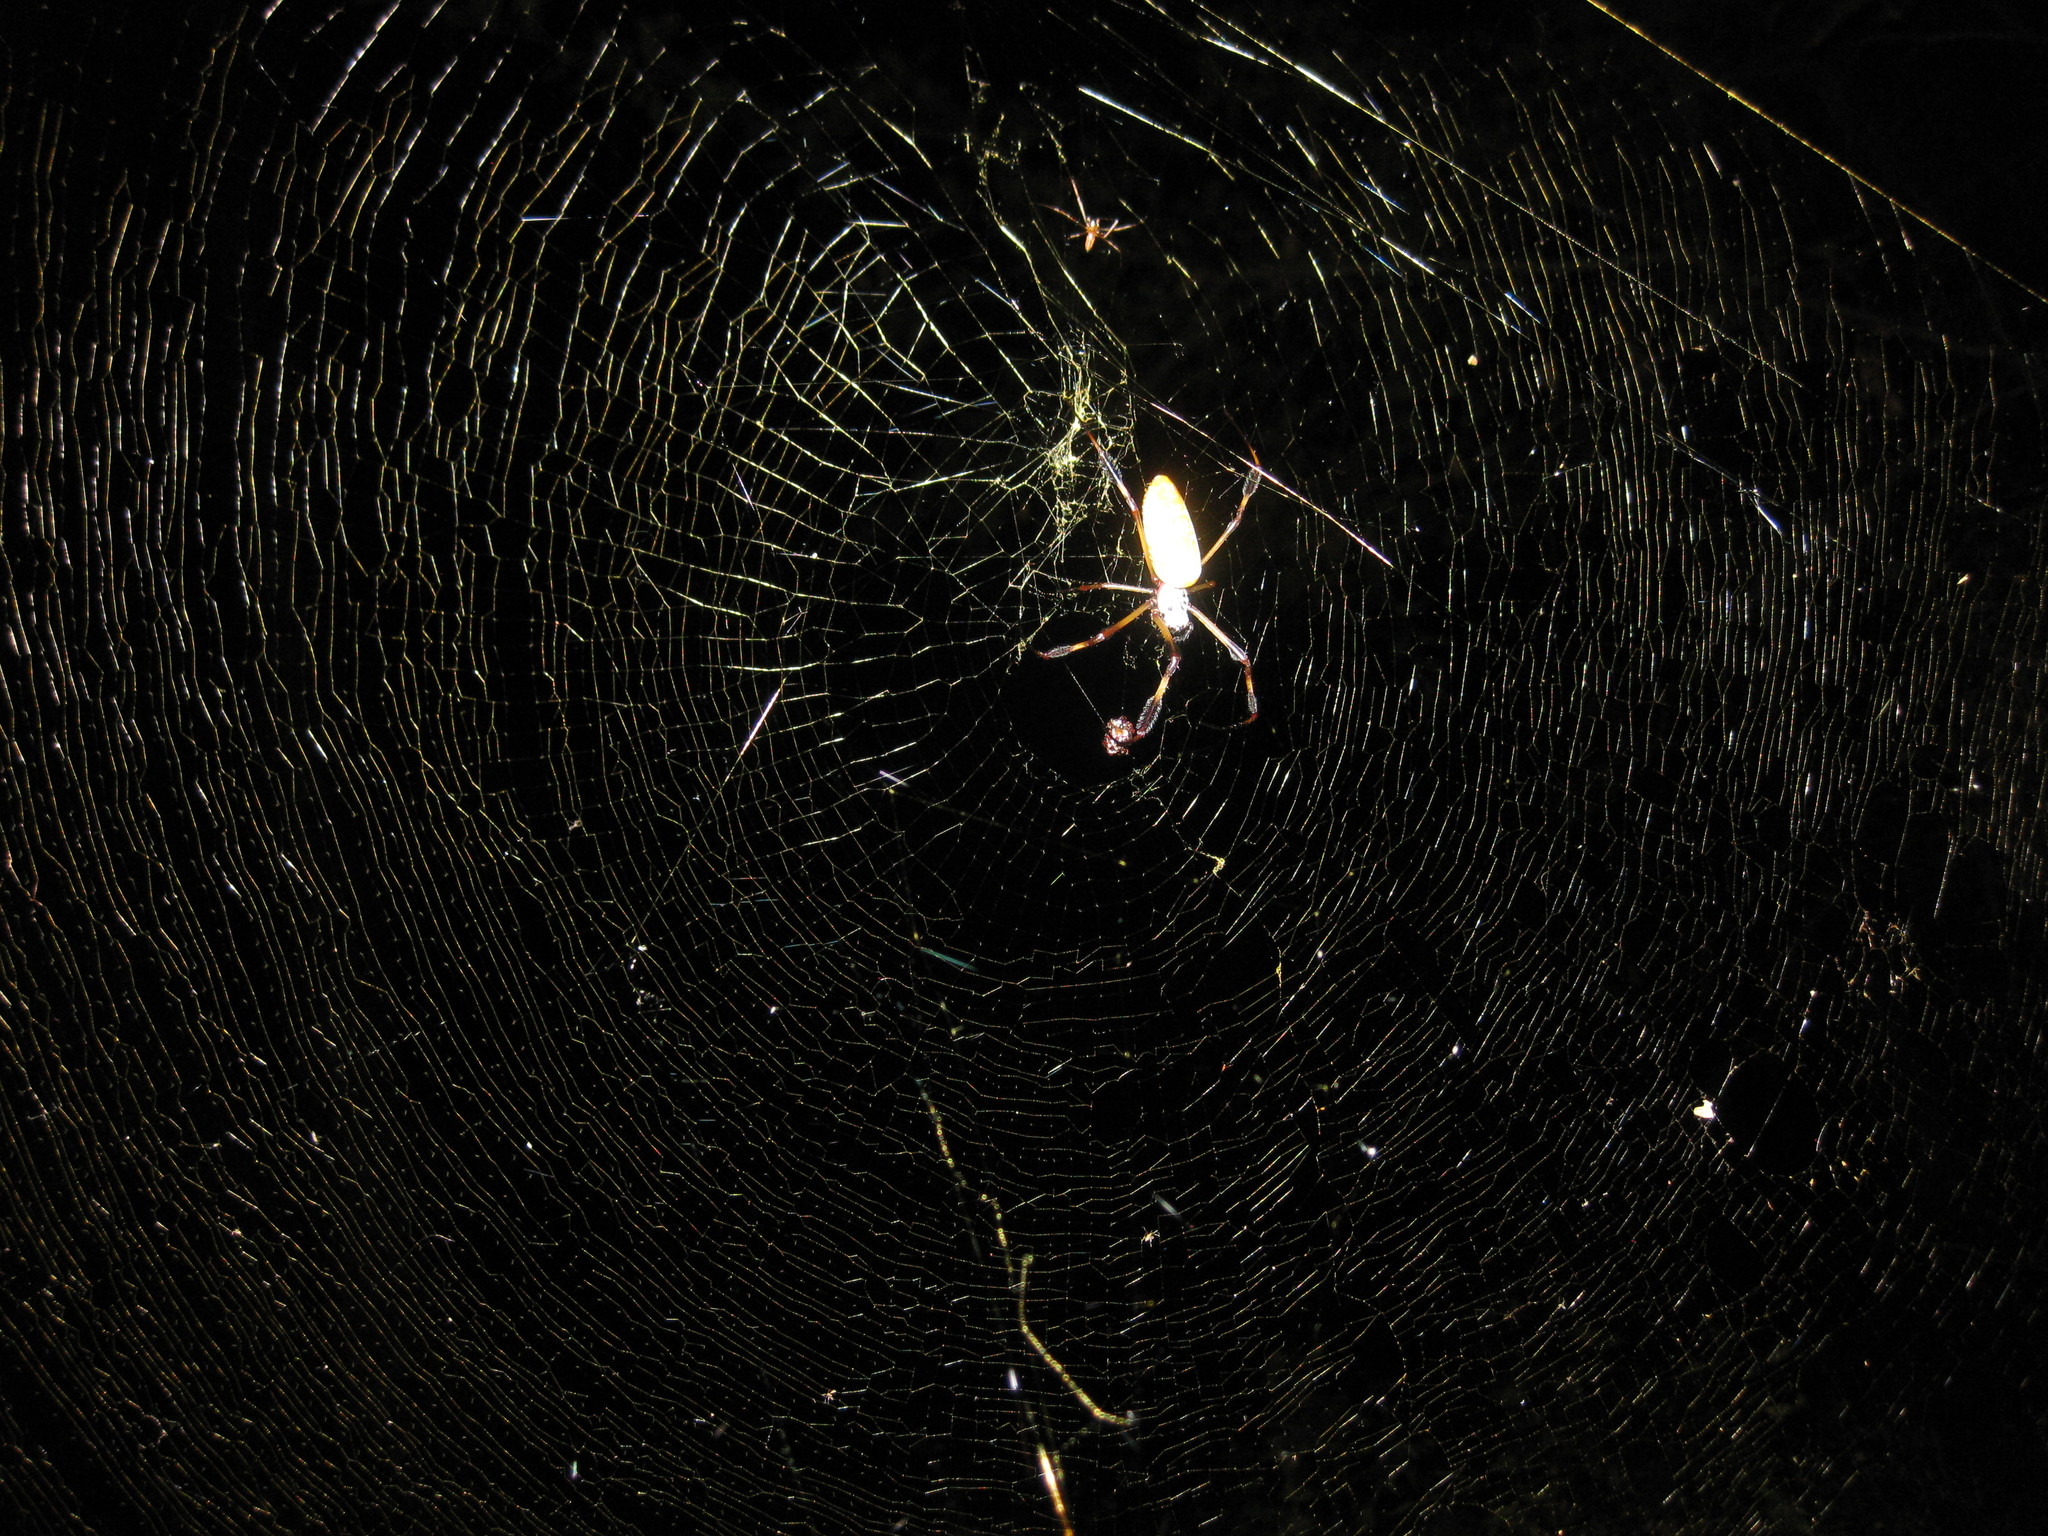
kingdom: Animalia
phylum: Arthropoda
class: Arachnida
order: Araneae
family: Araneidae
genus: Trichonephila
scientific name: Trichonephila clavipes
